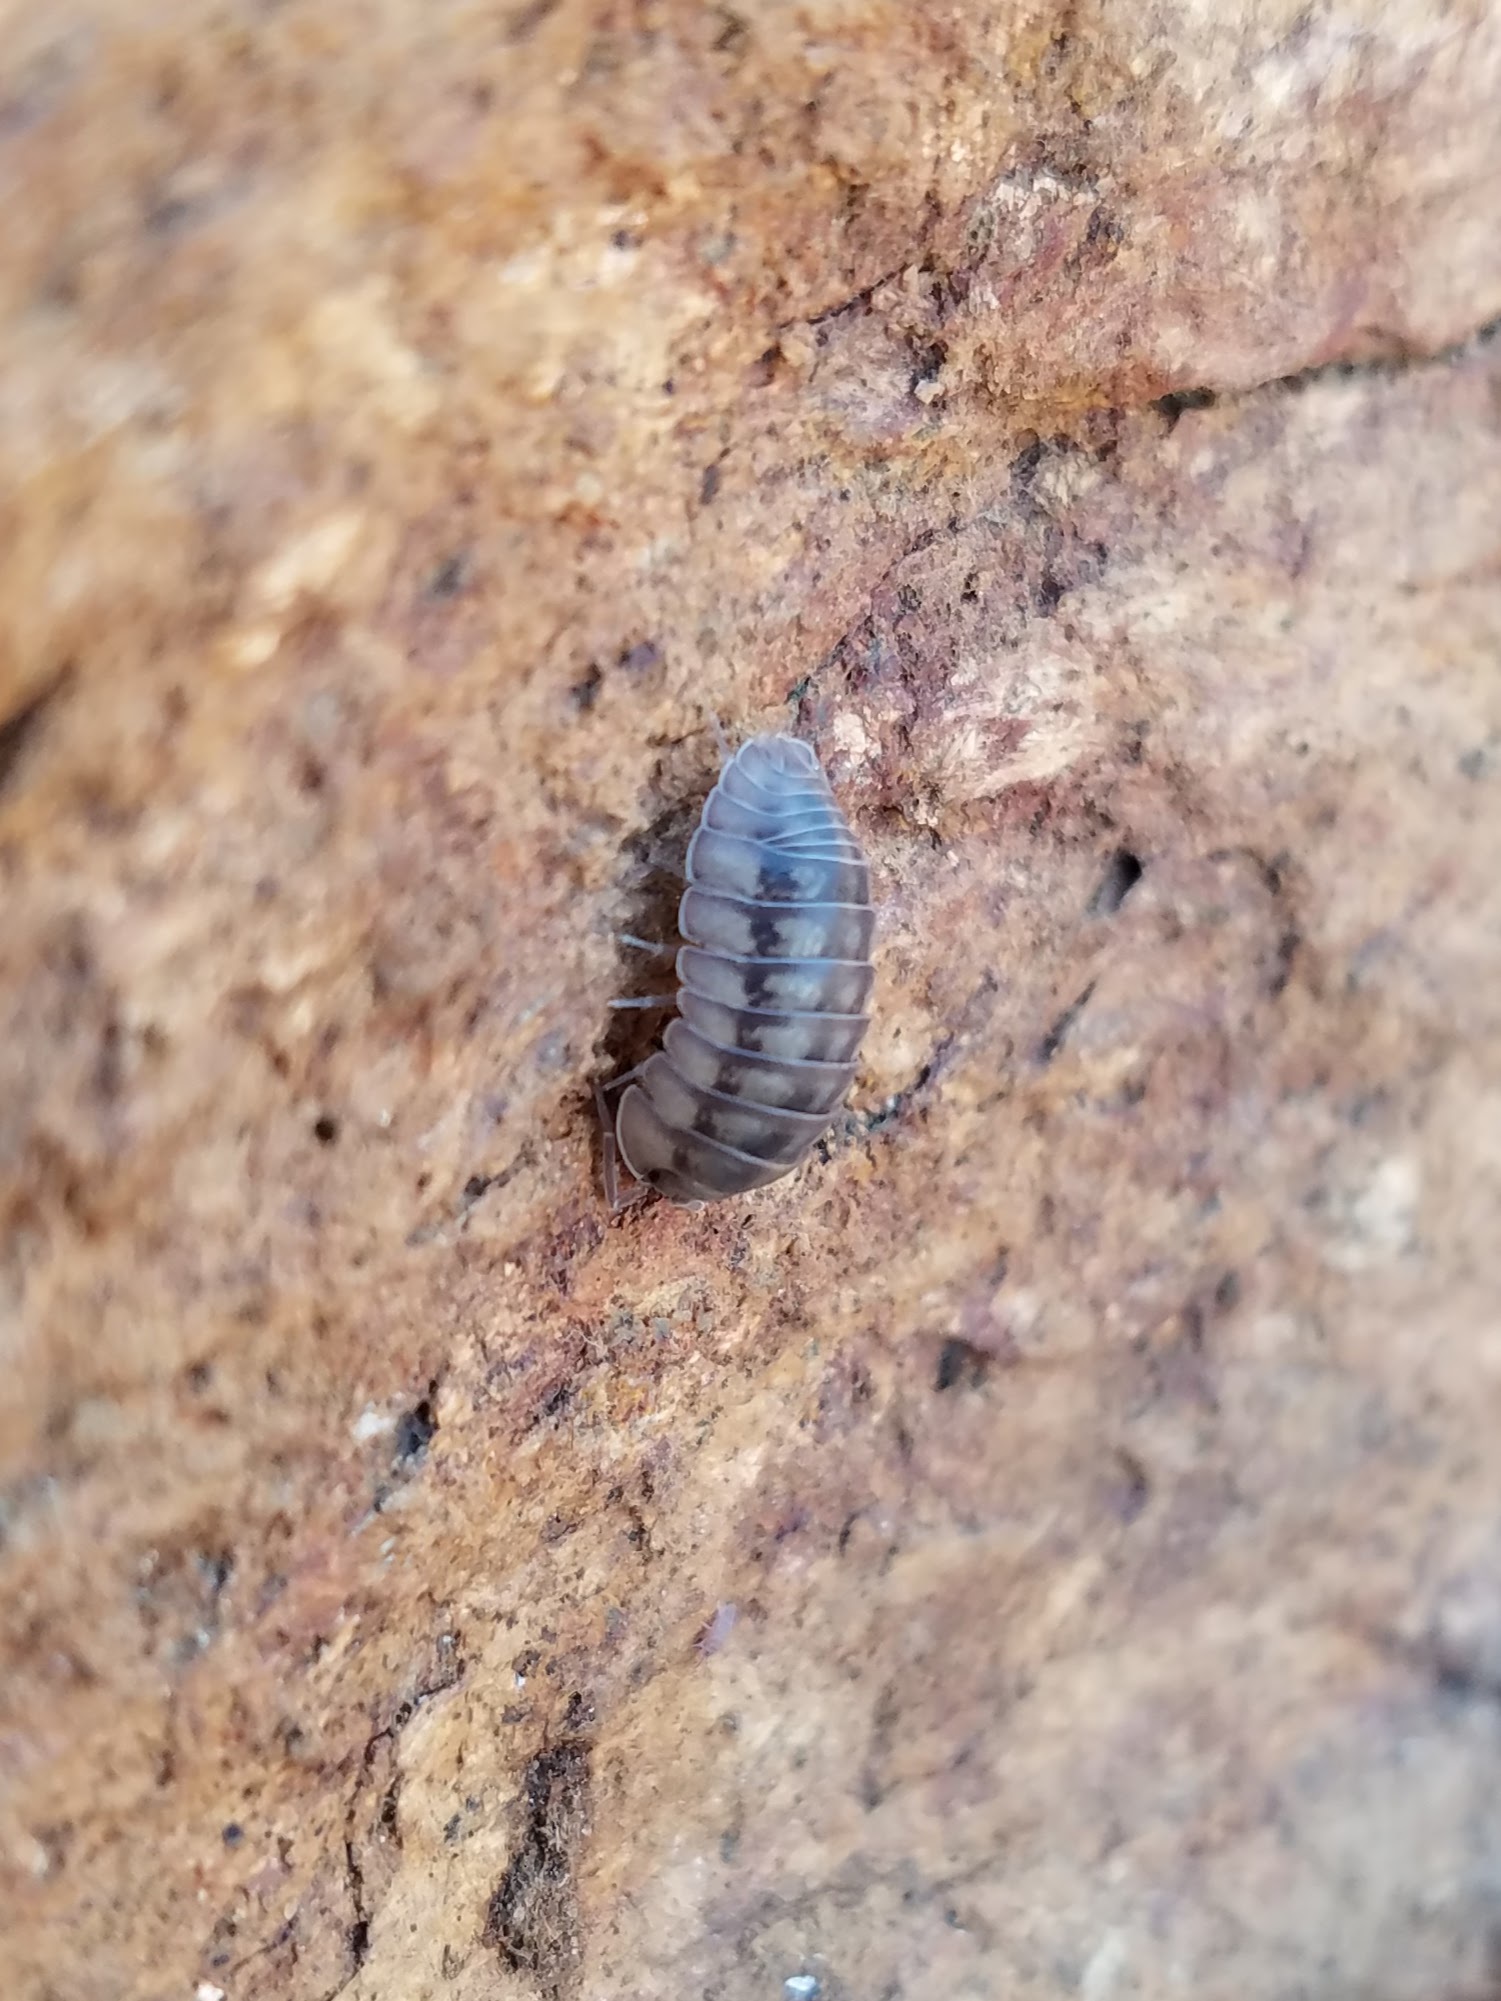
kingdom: Animalia
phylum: Arthropoda
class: Malacostraca
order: Isopoda
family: Armadillidiidae
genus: Armadillidium
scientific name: Armadillidium nasatum
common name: Isopod
